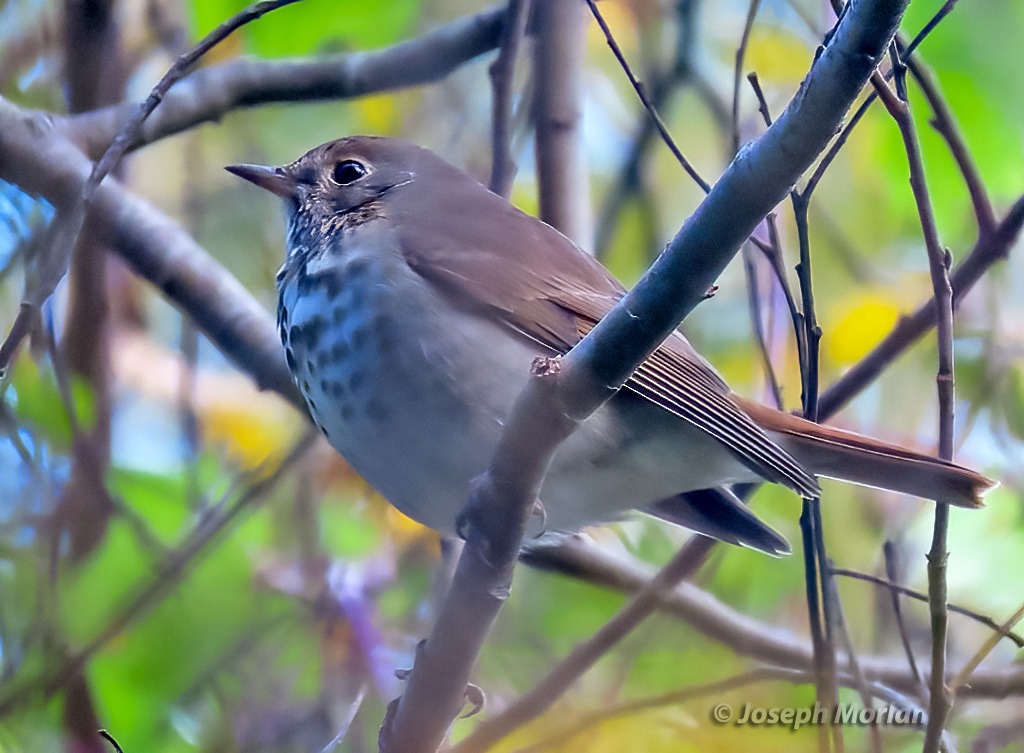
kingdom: Animalia
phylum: Chordata
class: Aves
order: Passeriformes
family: Turdidae
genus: Catharus
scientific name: Catharus guttatus
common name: Hermit thrush
